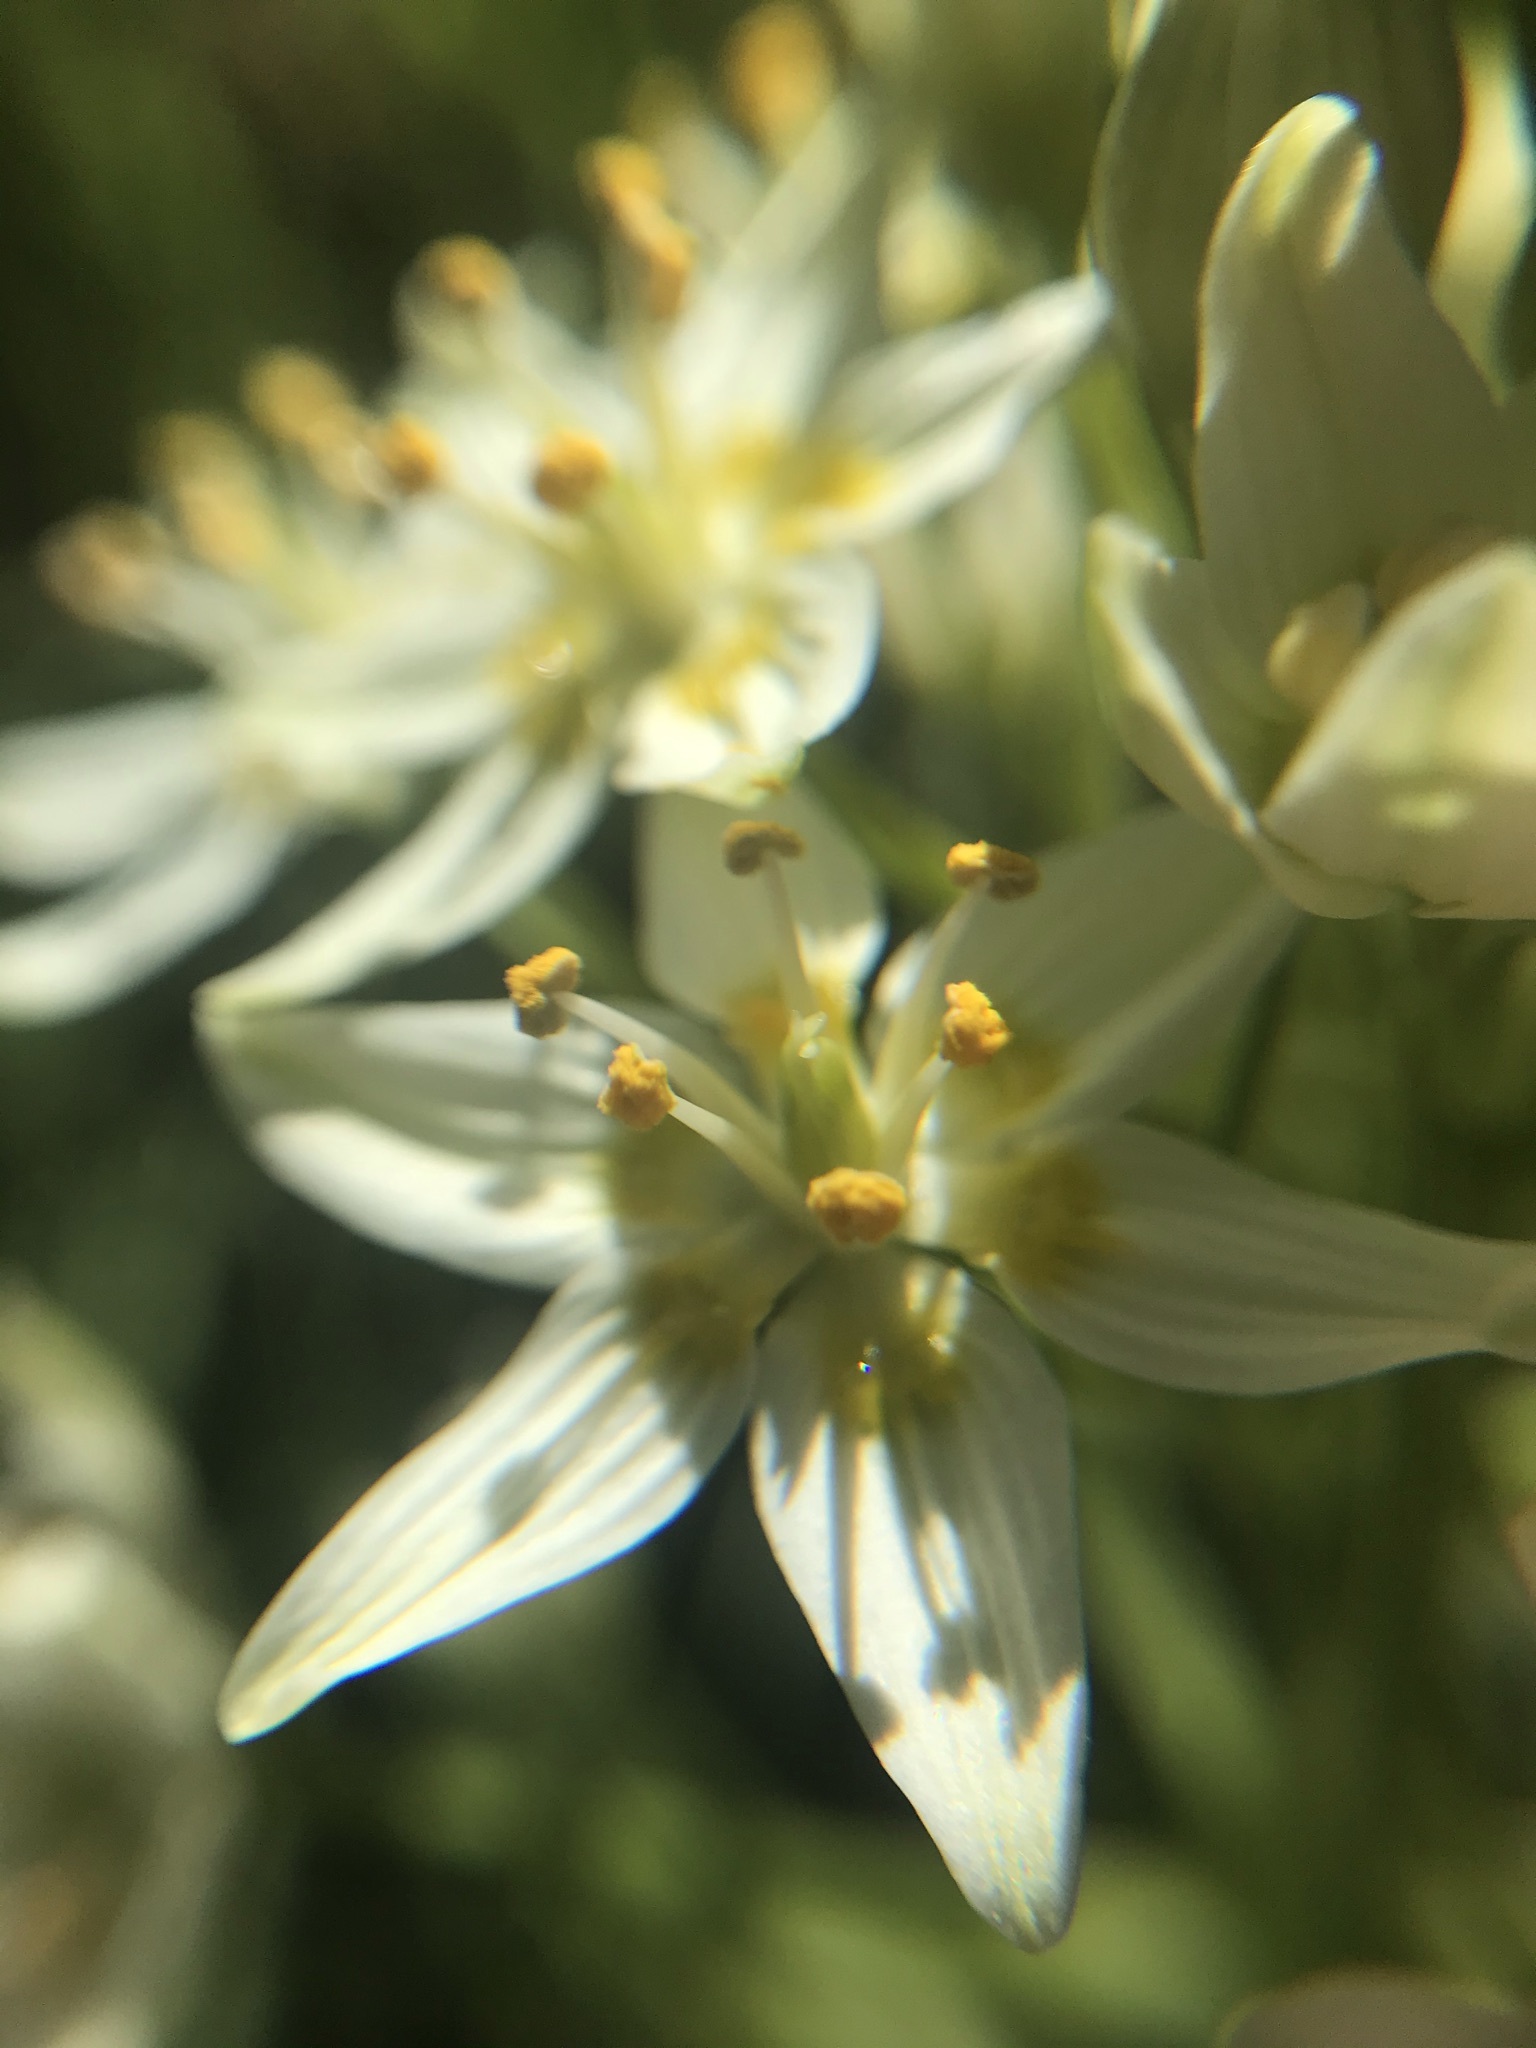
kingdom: Plantae
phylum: Tracheophyta
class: Liliopsida
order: Liliales
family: Melanthiaceae
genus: Toxicoscordion
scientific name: Toxicoscordion fremontii
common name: Fremont's death camas
